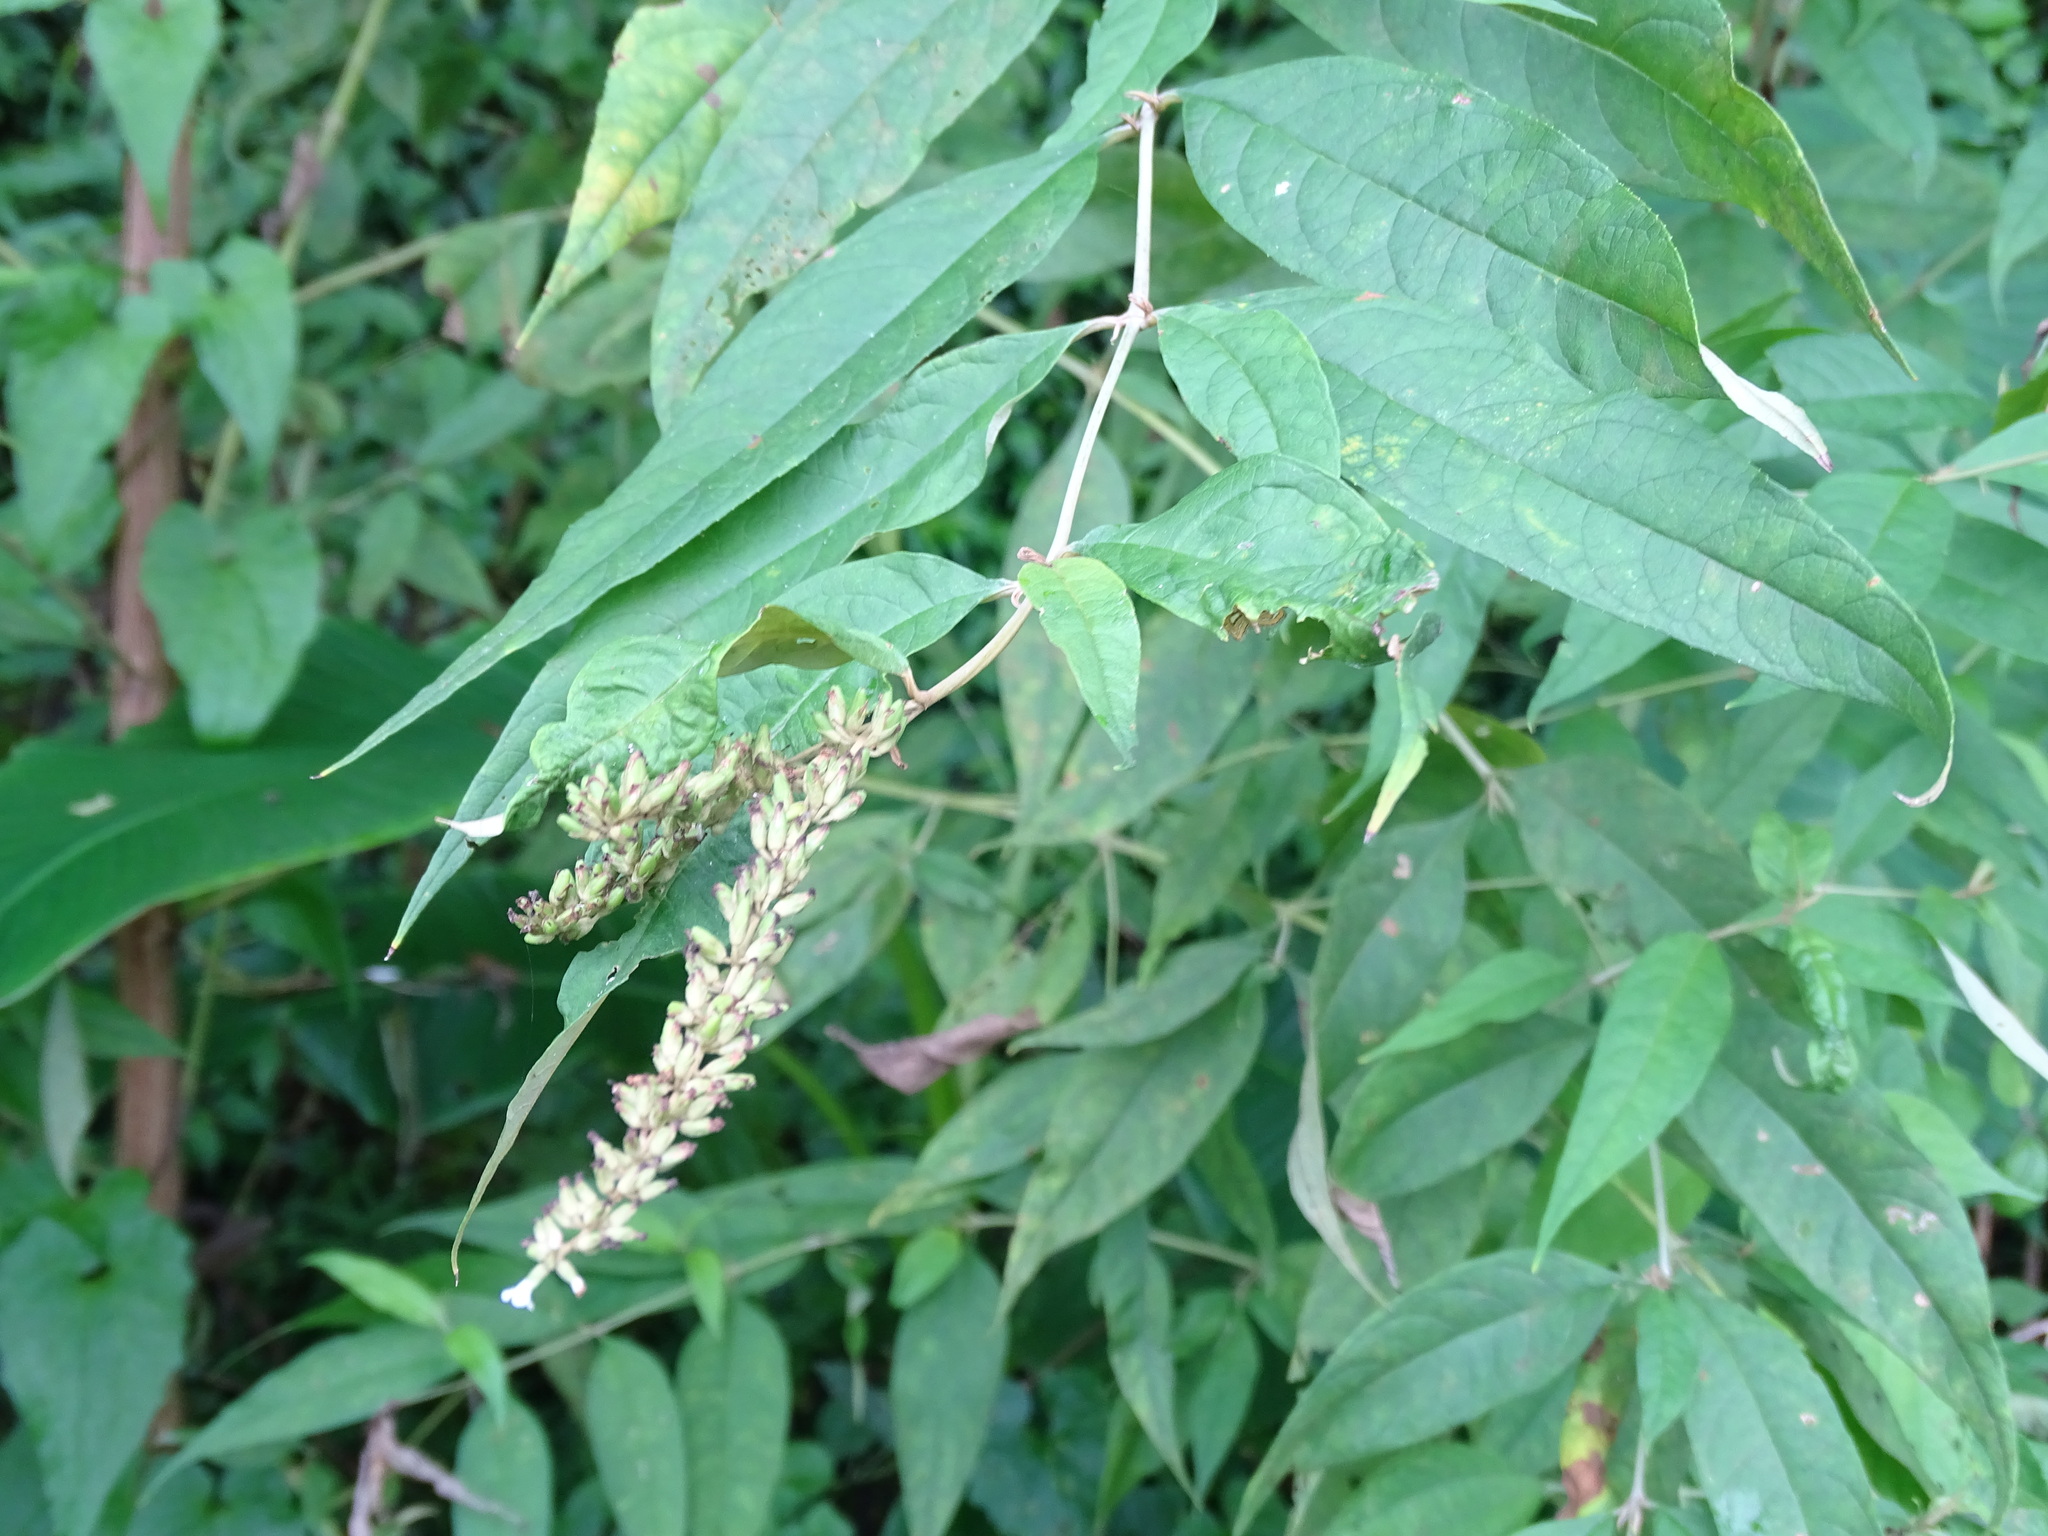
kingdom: Plantae
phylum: Tracheophyta
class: Magnoliopsida
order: Lamiales
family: Scrophulariaceae
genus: Buddleja
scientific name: Buddleja asiatica
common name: Dog tail
